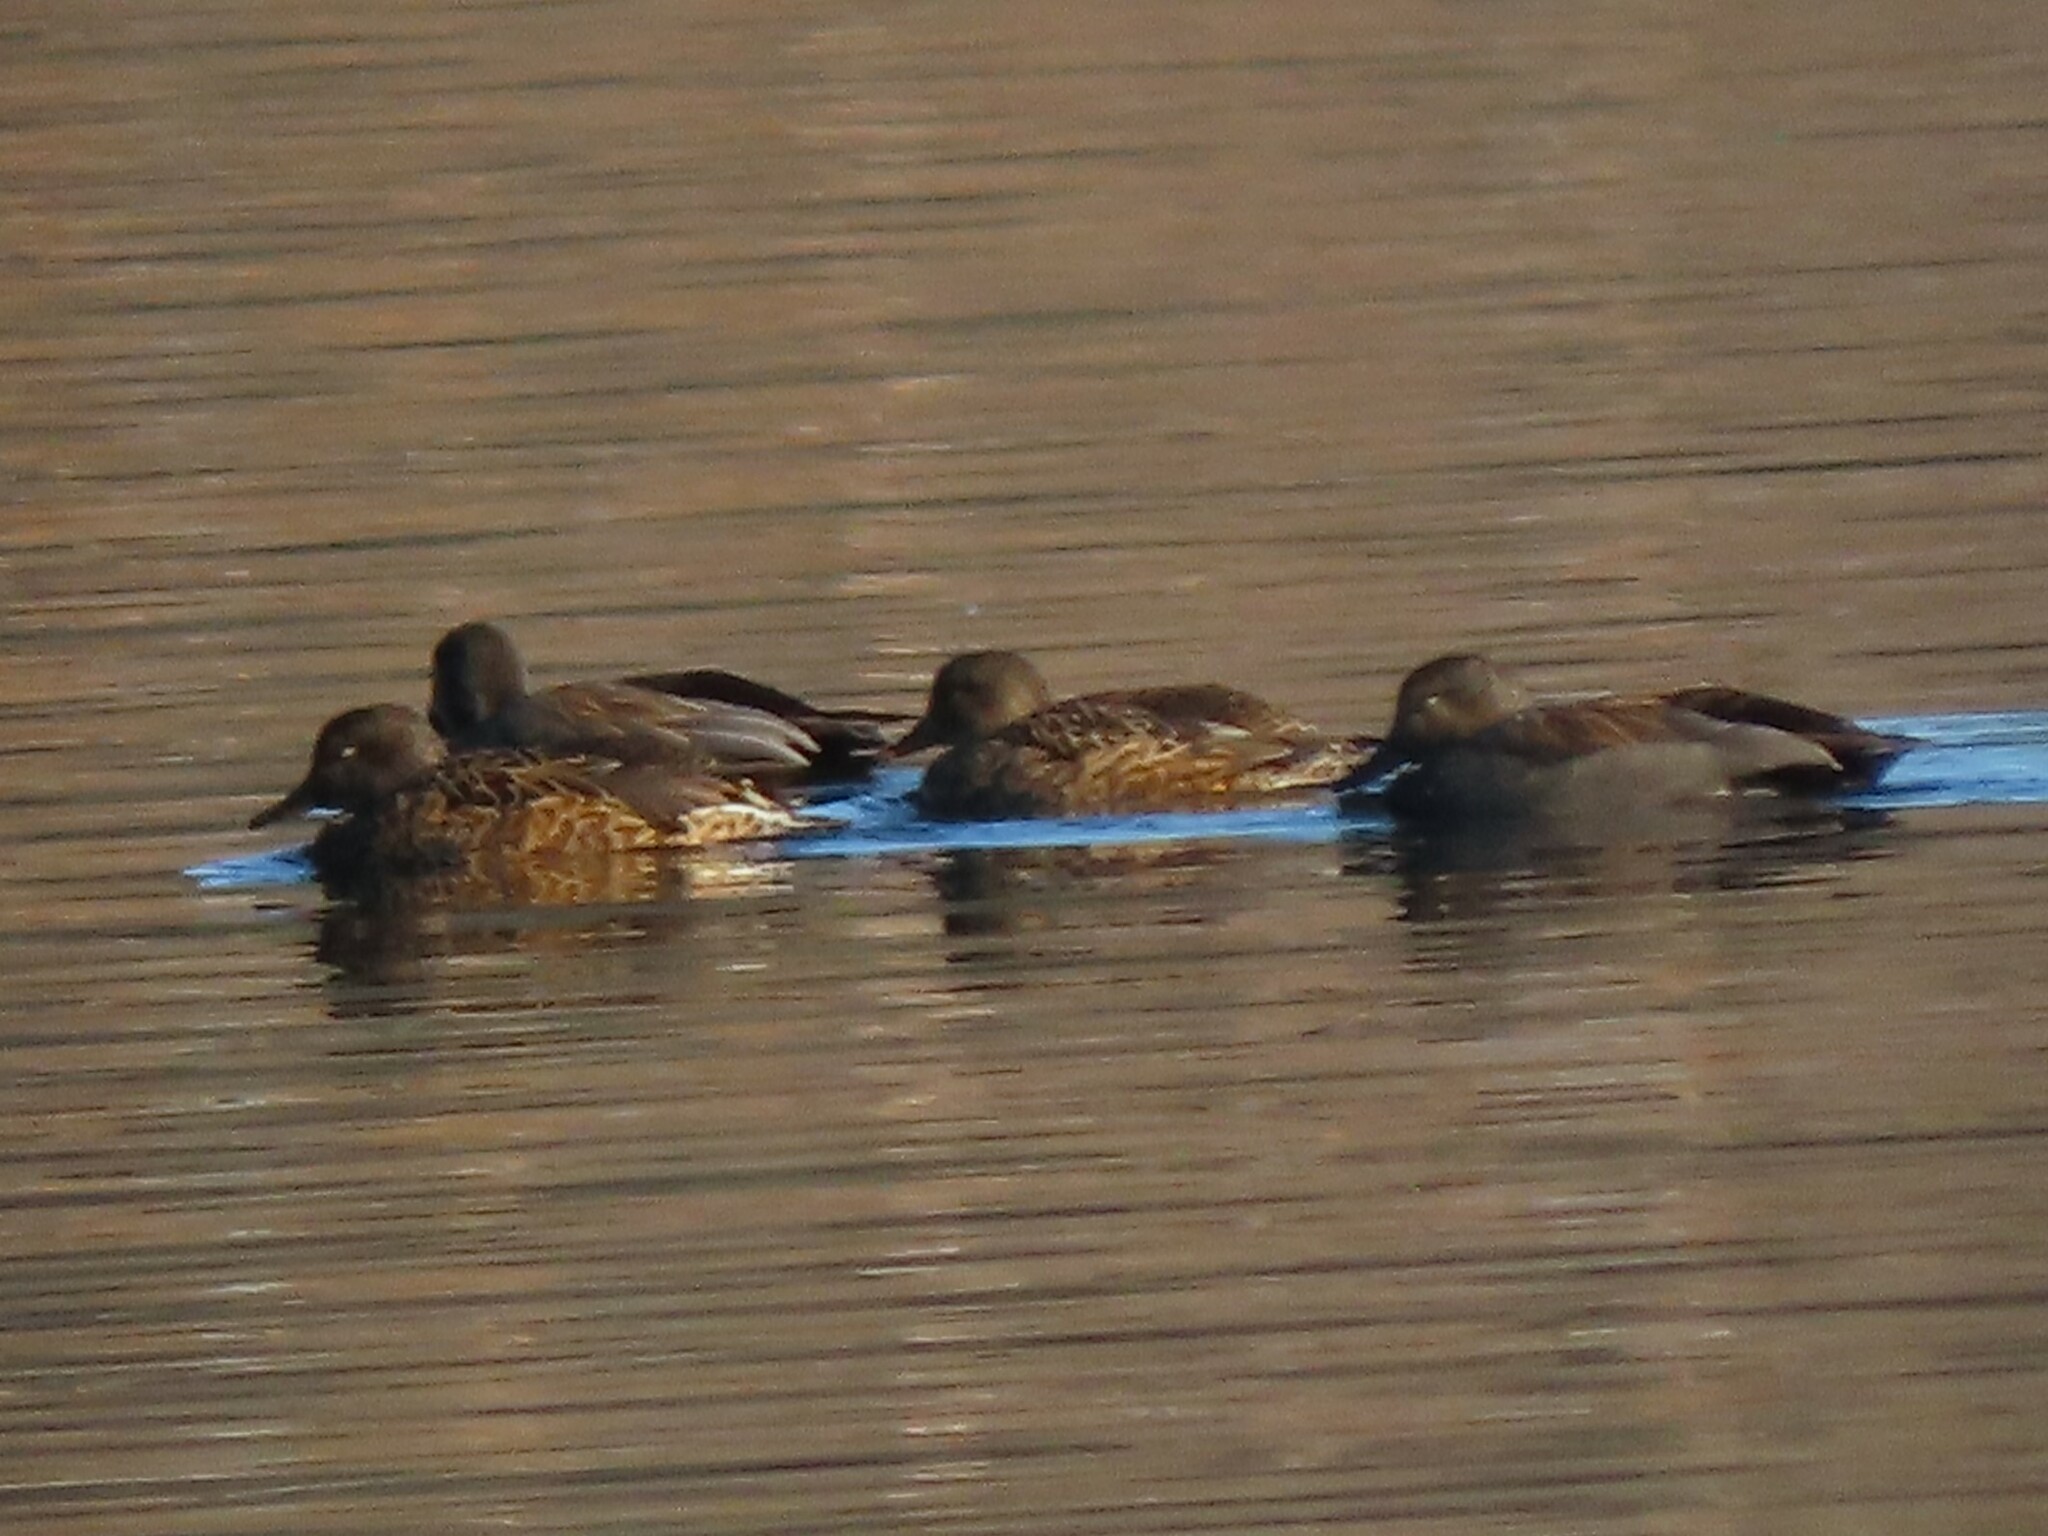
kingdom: Animalia
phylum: Chordata
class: Aves
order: Anseriformes
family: Anatidae
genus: Mareca
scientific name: Mareca strepera
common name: Gadwall
